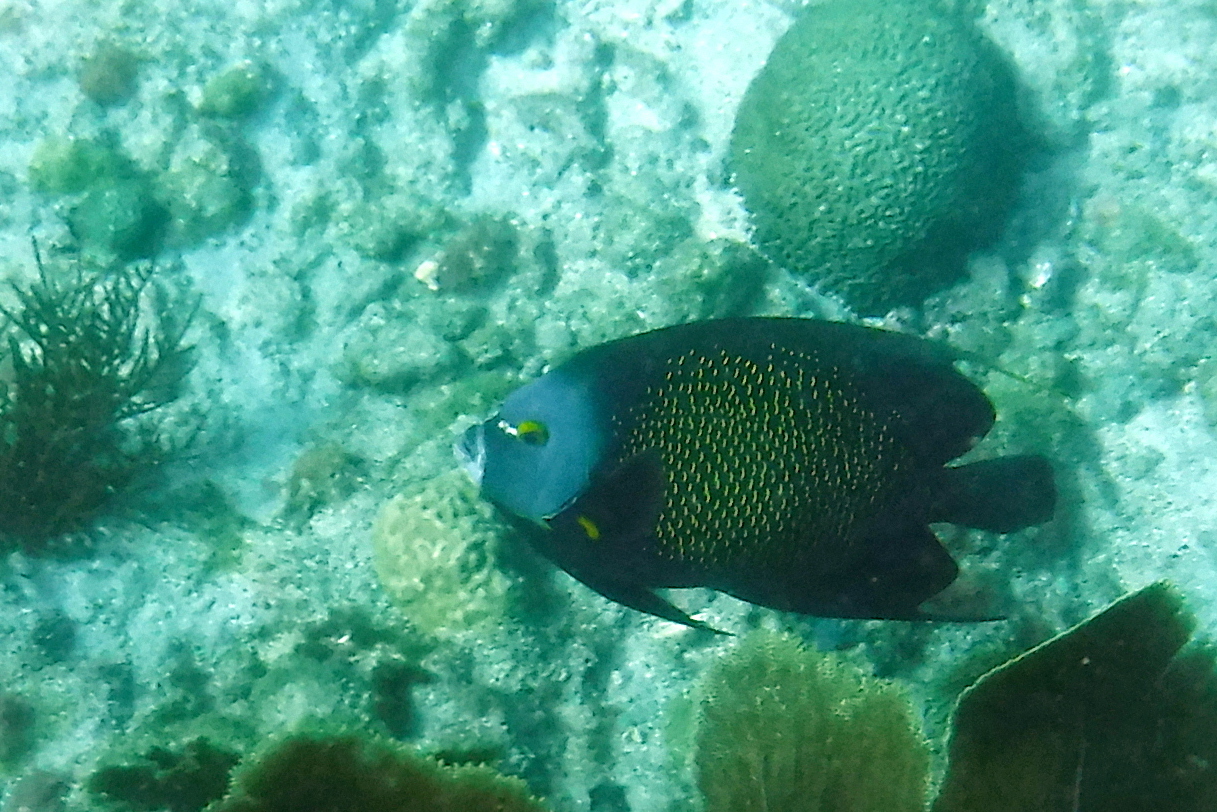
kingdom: Animalia
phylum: Chordata
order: Perciformes
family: Pomacanthidae
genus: Pomacanthus
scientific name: Pomacanthus paru
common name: French angelfish
